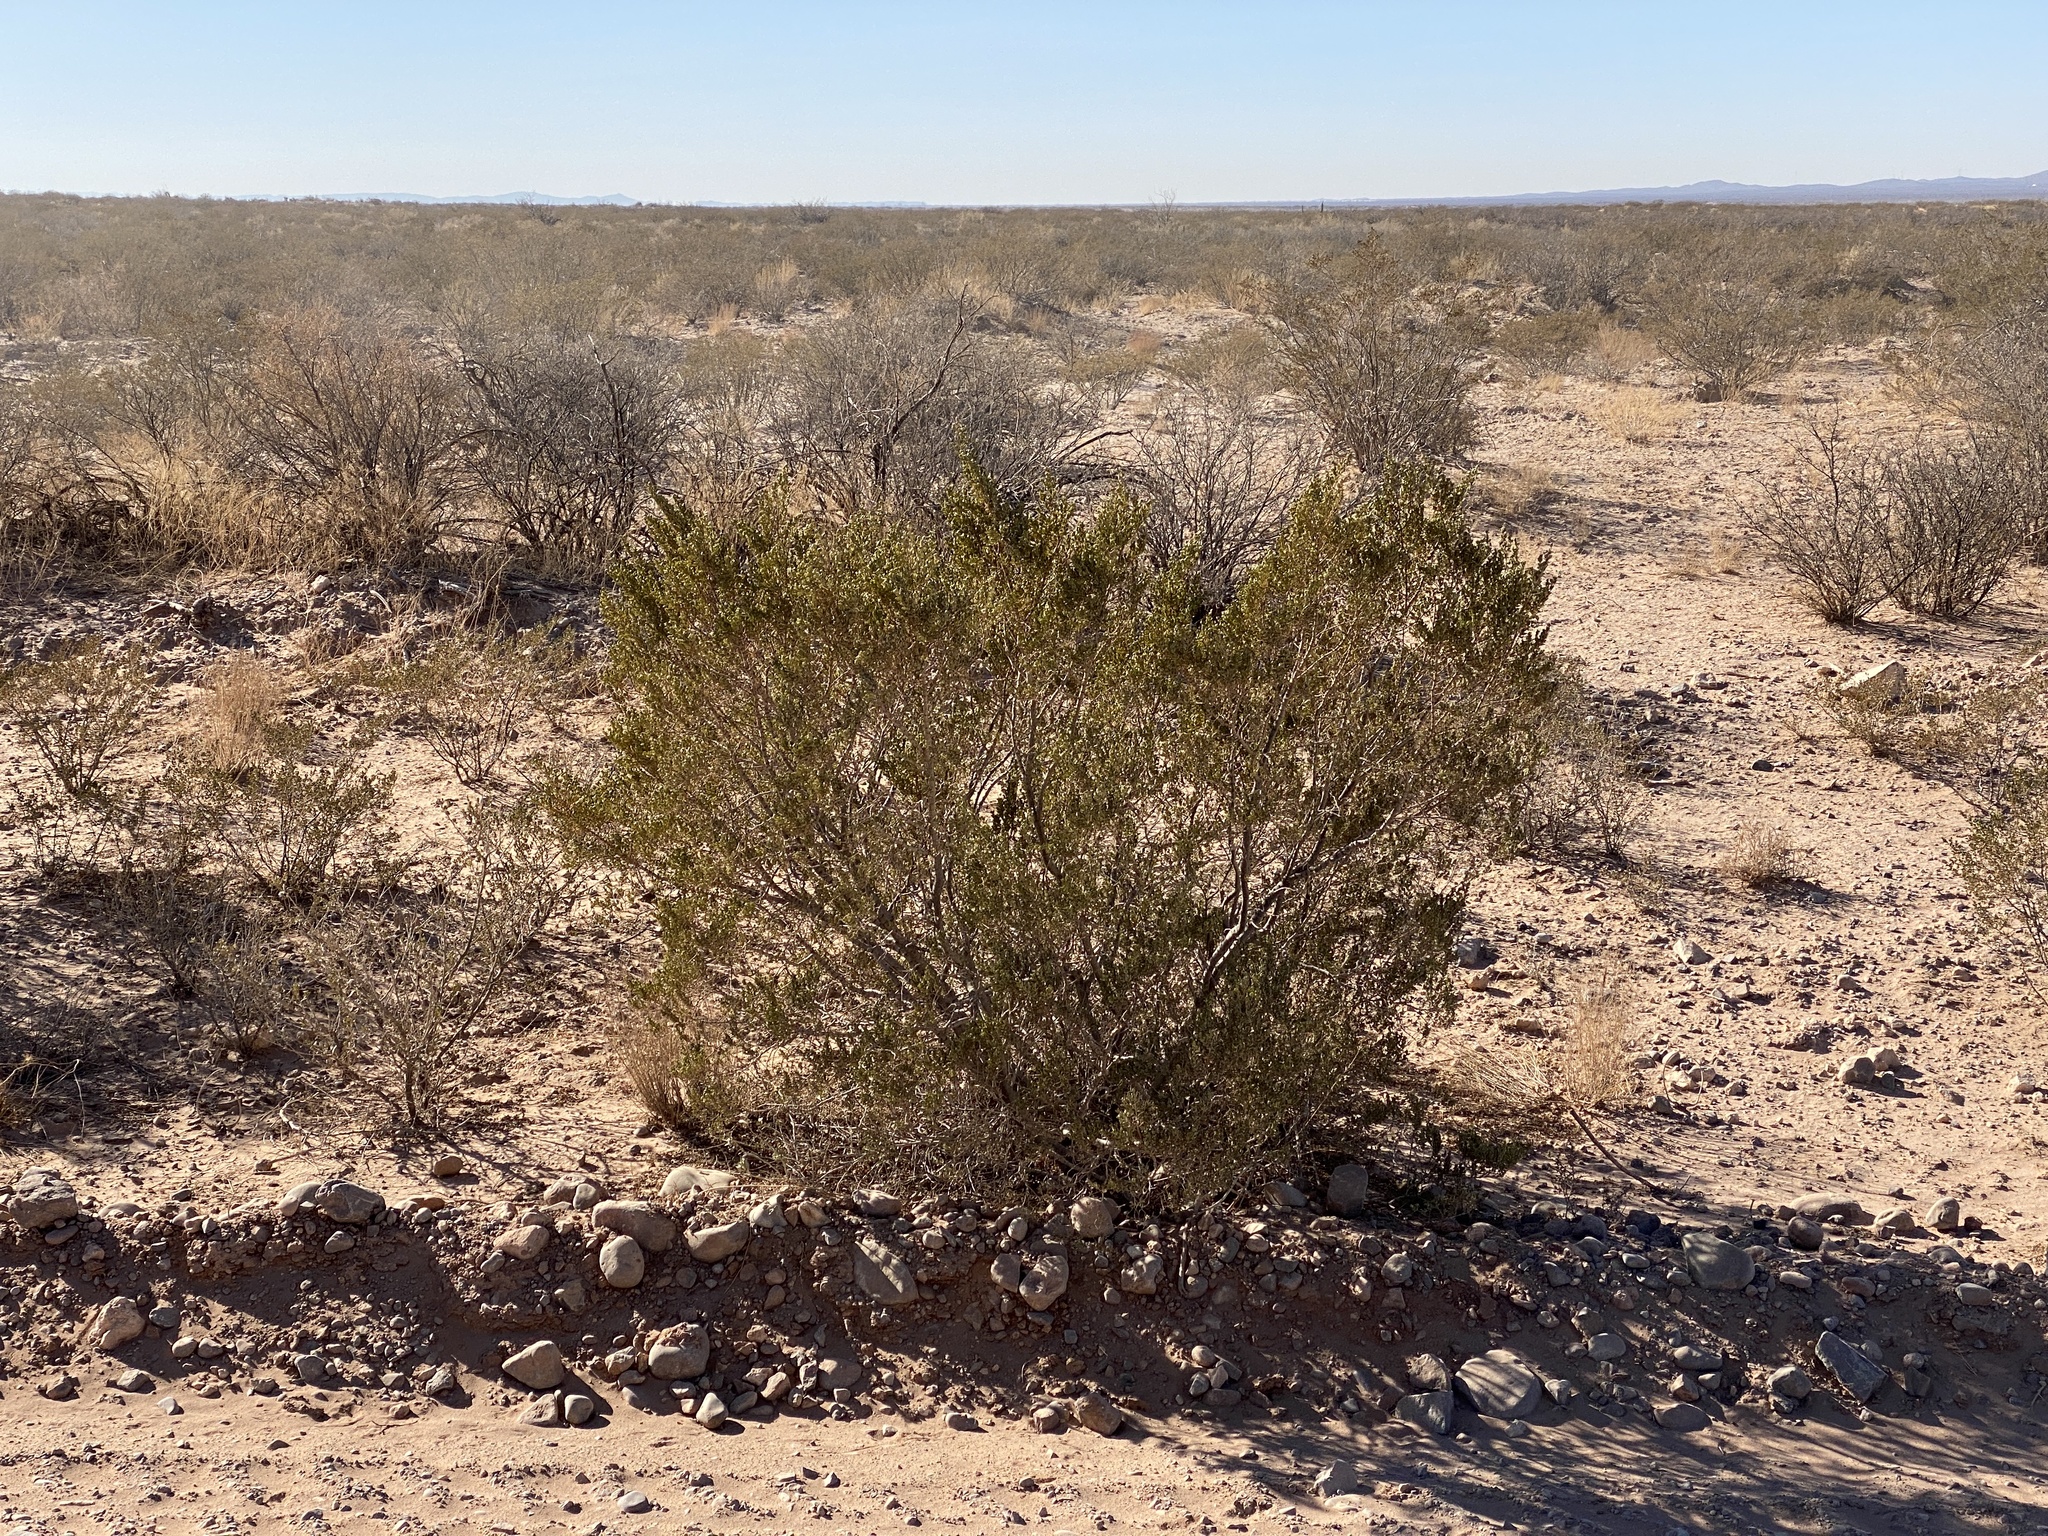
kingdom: Plantae
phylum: Tracheophyta
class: Magnoliopsida
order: Zygophyllales
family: Zygophyllaceae
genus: Larrea
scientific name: Larrea tridentata
